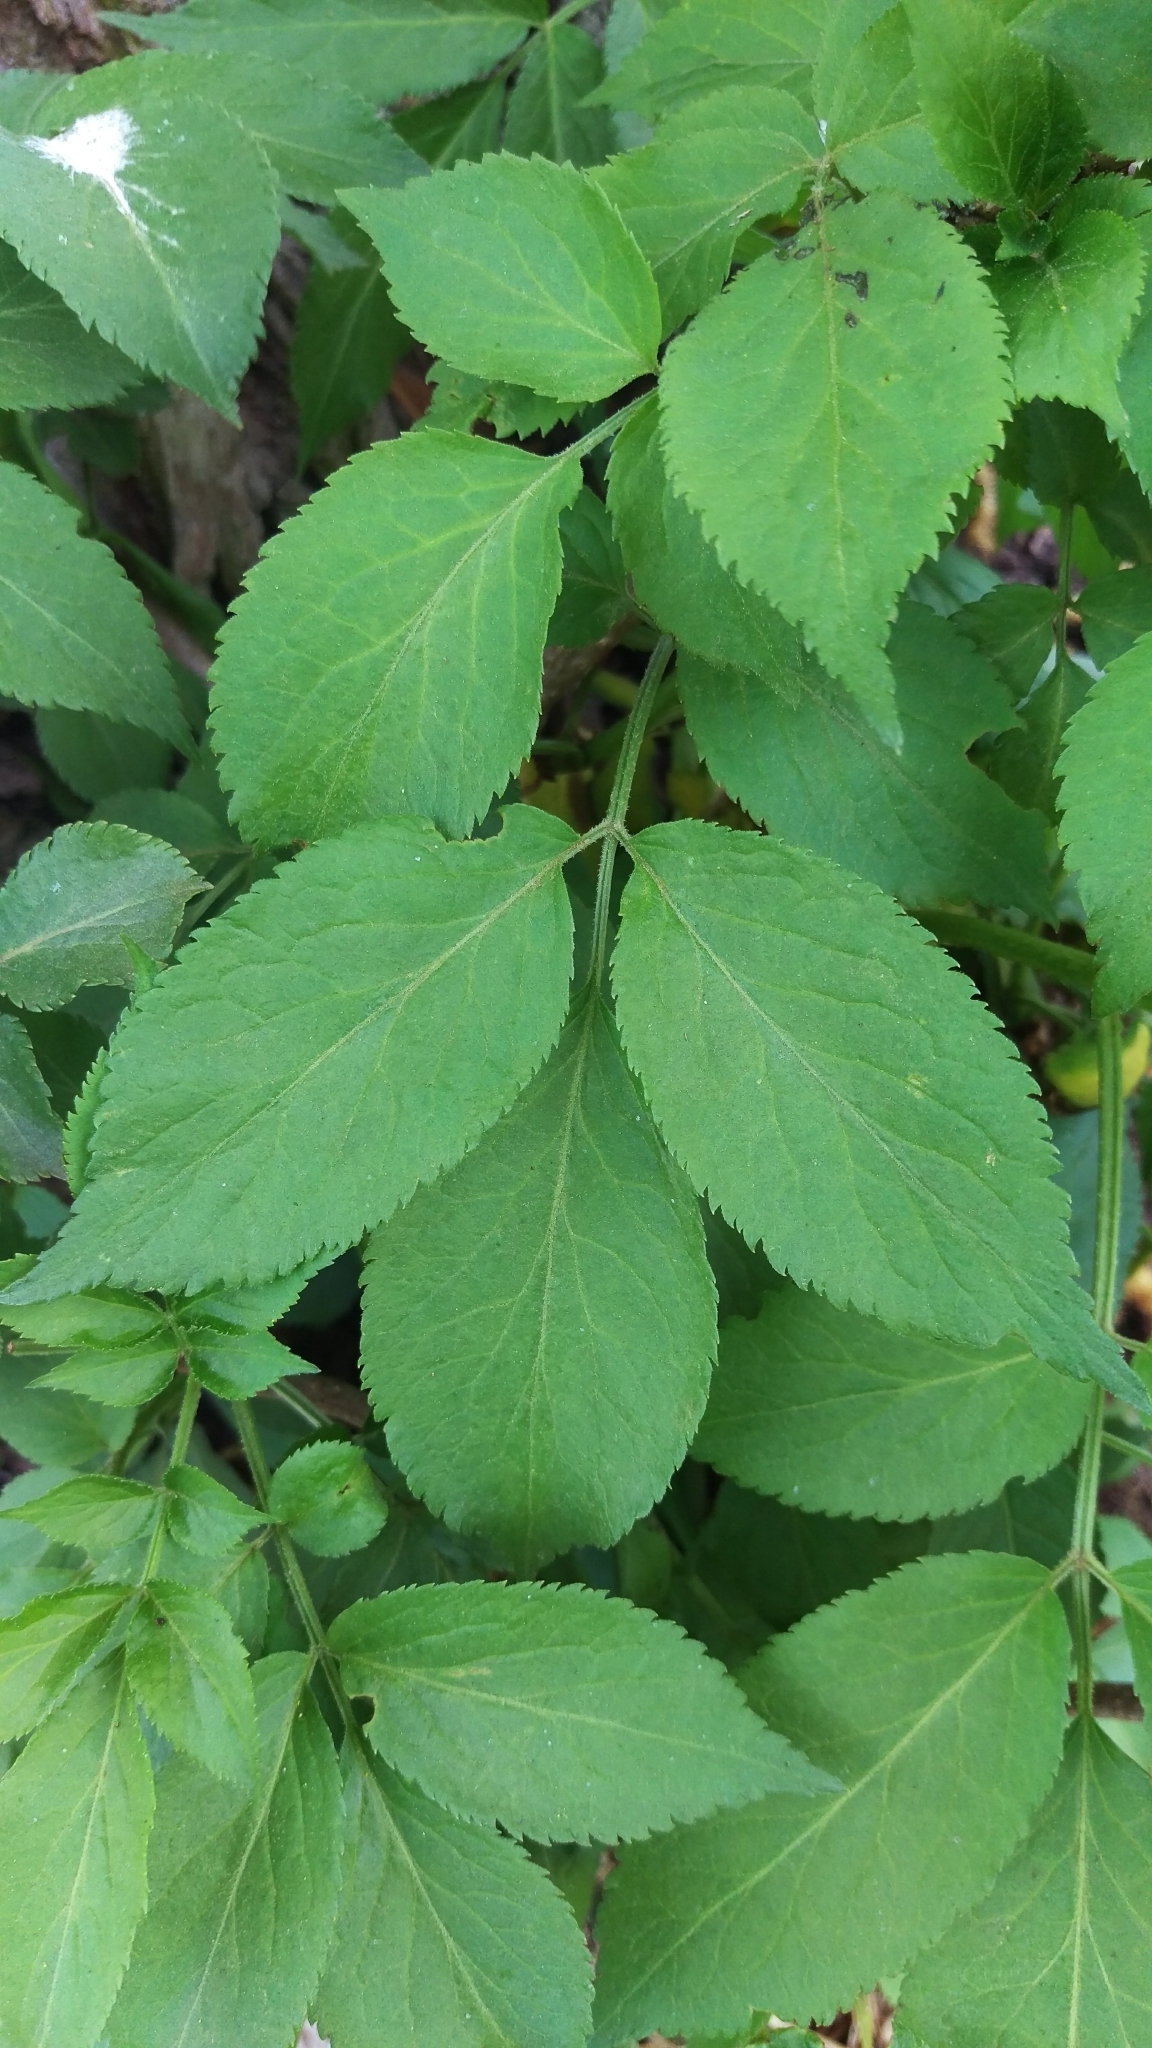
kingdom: Plantae
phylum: Tracheophyta
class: Magnoliopsida
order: Dipsacales
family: Viburnaceae
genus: Sambucus
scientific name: Sambucus nigra
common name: Elder
